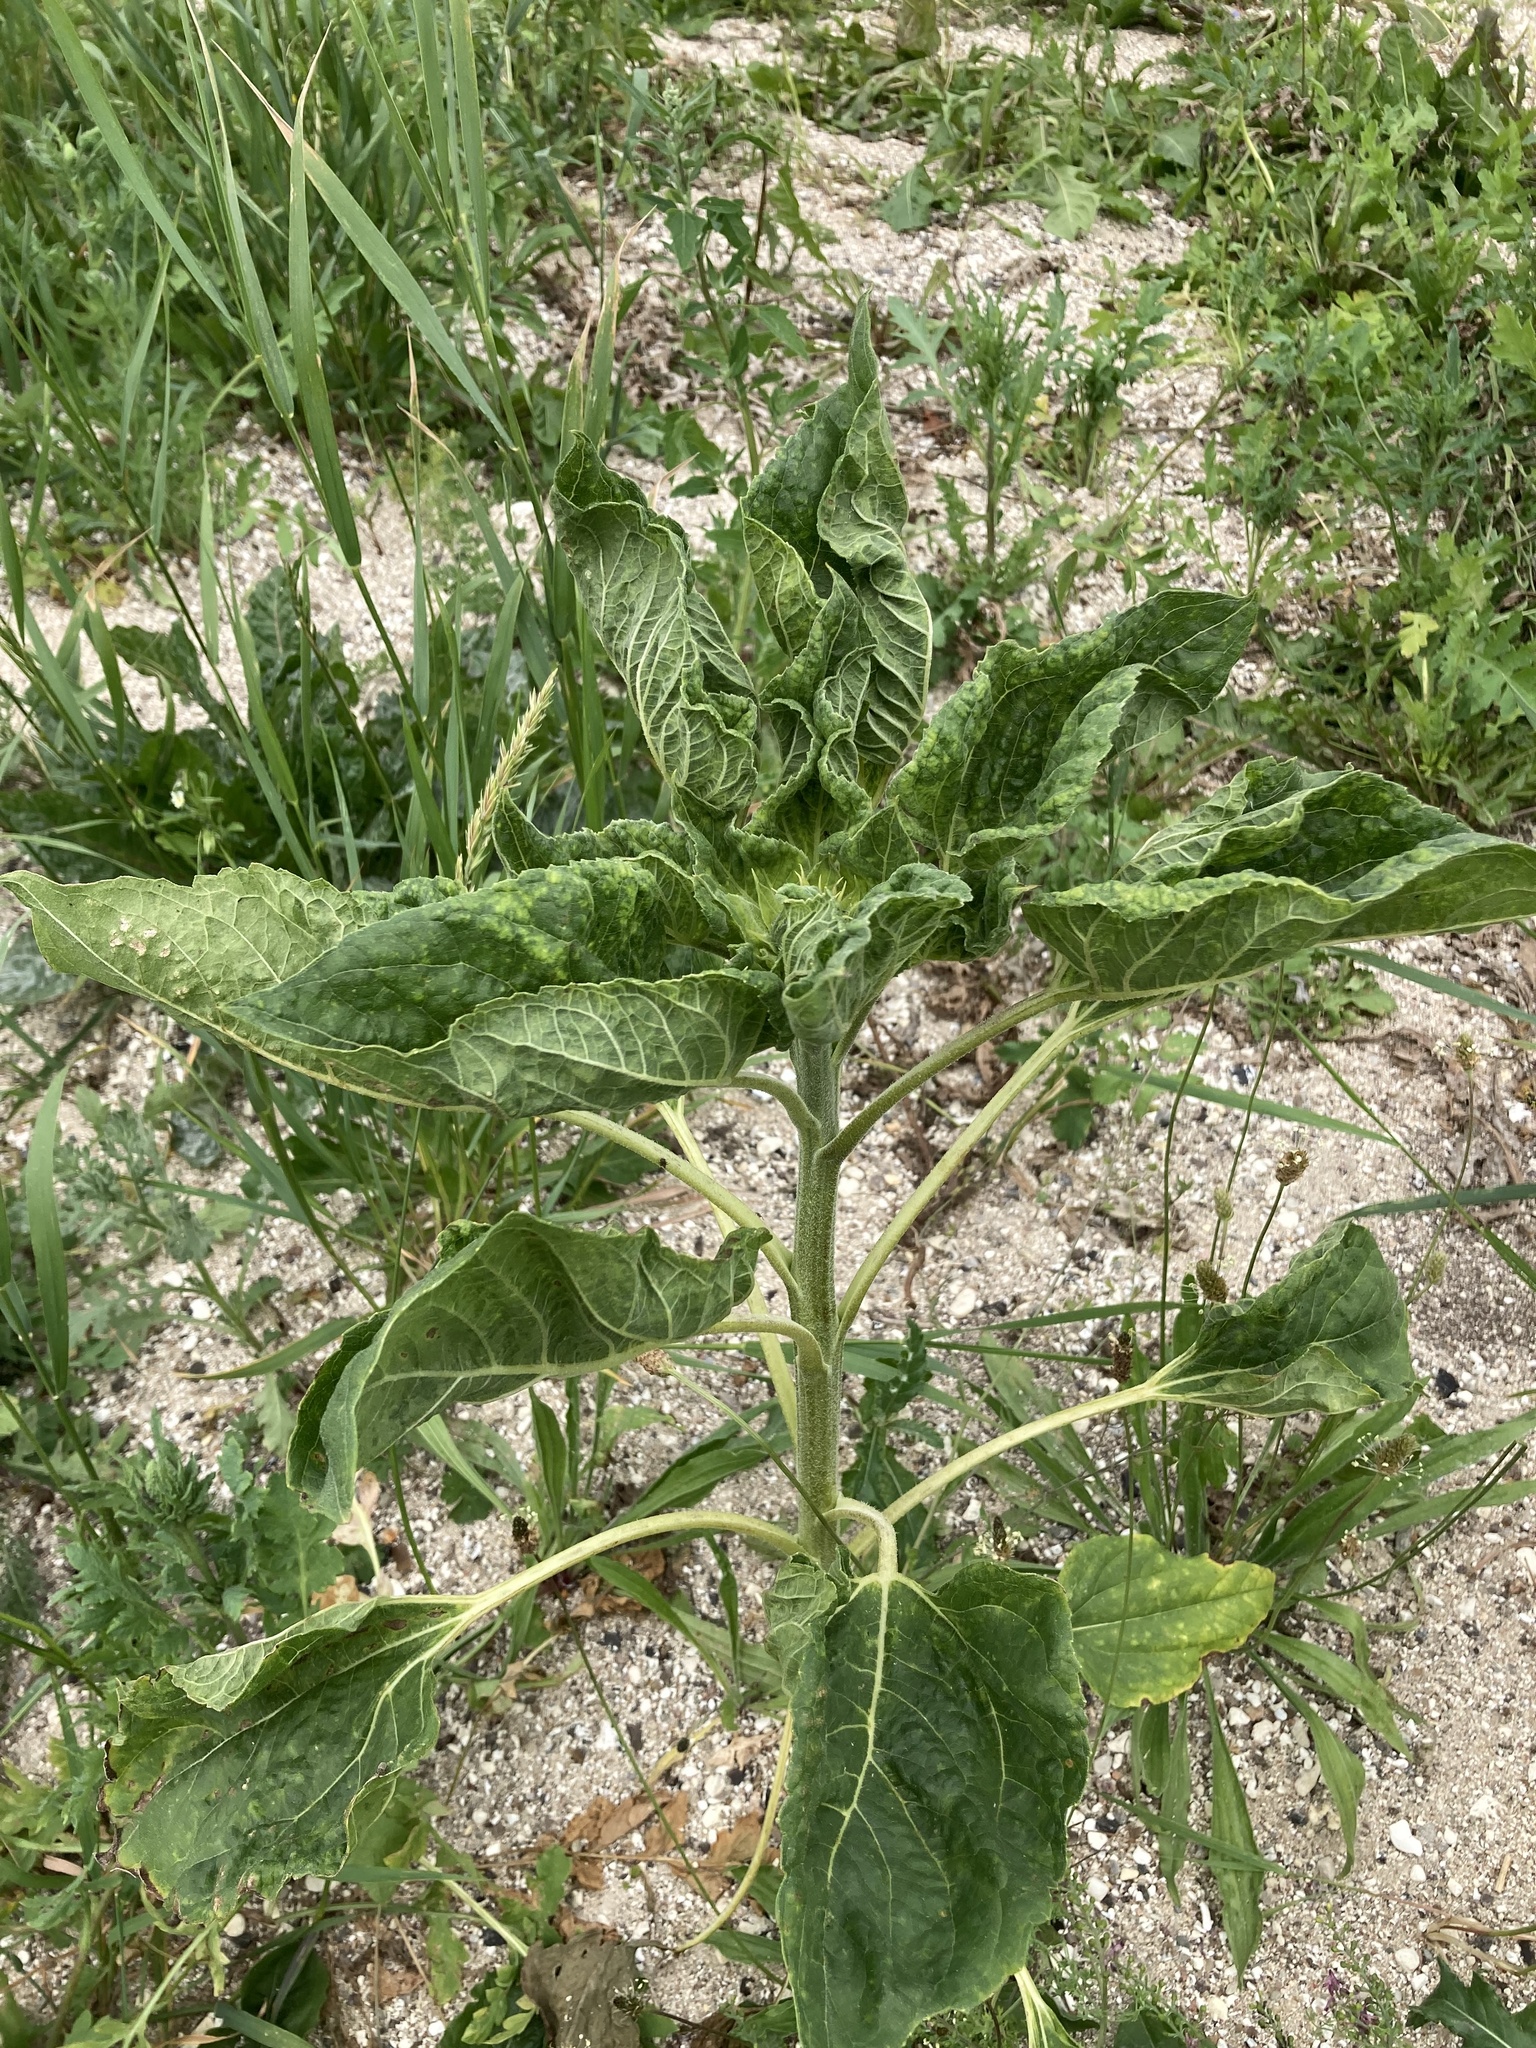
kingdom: Plantae
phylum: Tracheophyta
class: Magnoliopsida
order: Asterales
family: Asteraceae
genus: Helianthus
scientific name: Helianthus annuus
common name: Sunflower
